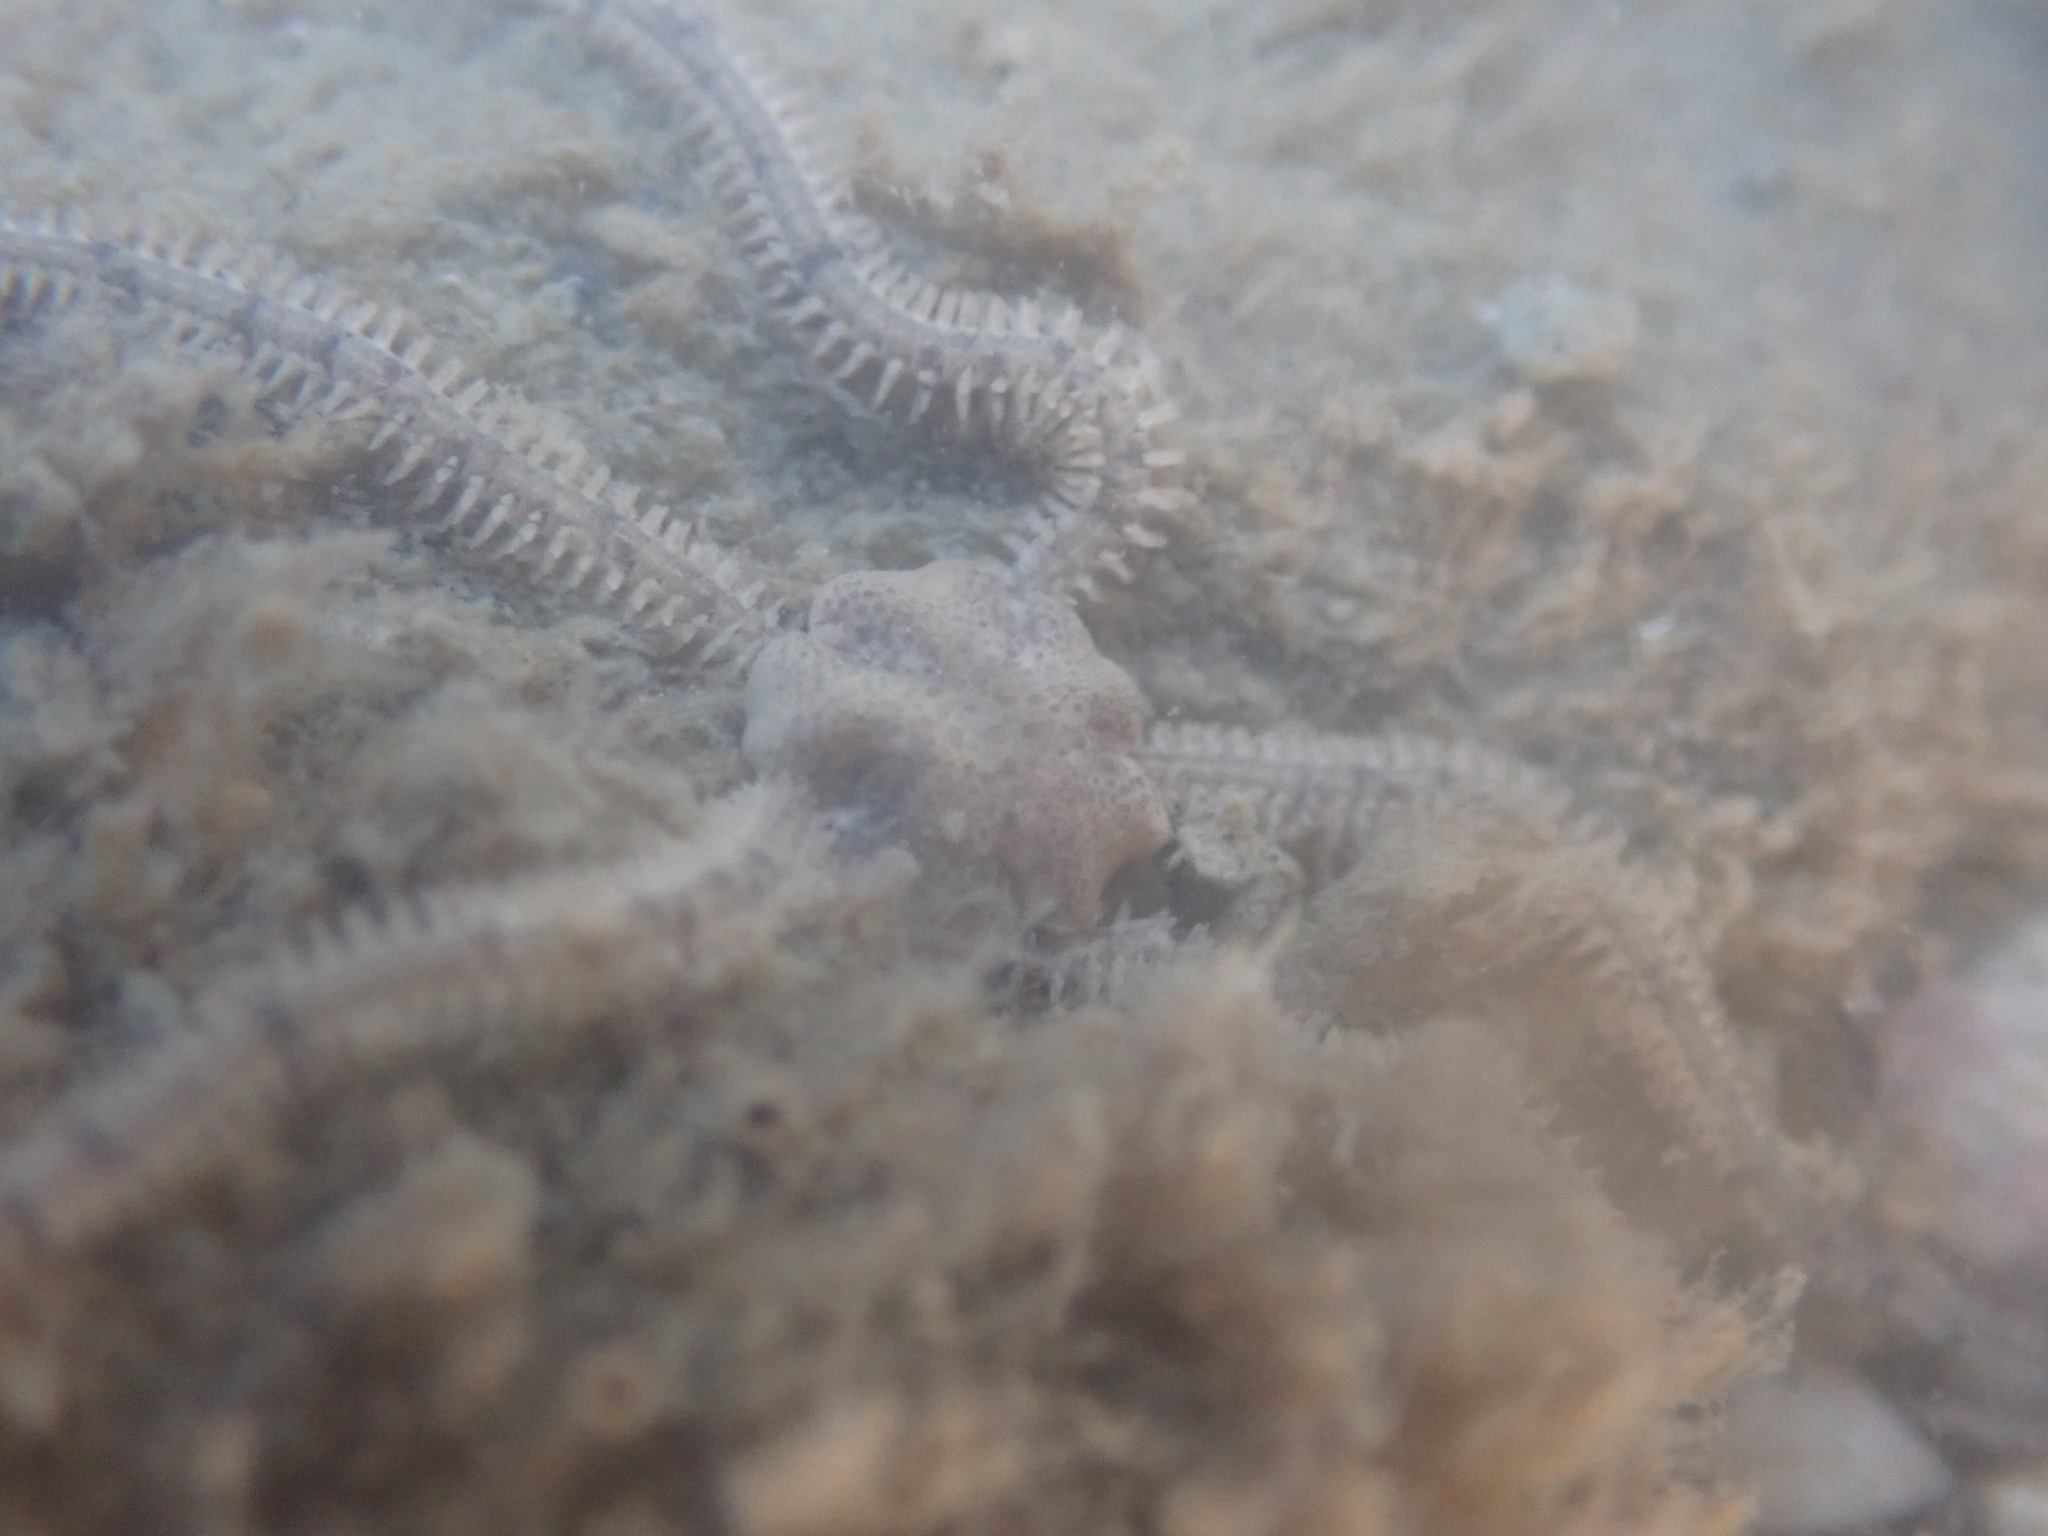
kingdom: Animalia
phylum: Echinodermata
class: Ophiuroidea
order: Amphilepidida
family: Amphiuridae
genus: Amphiura
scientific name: Amphiura
